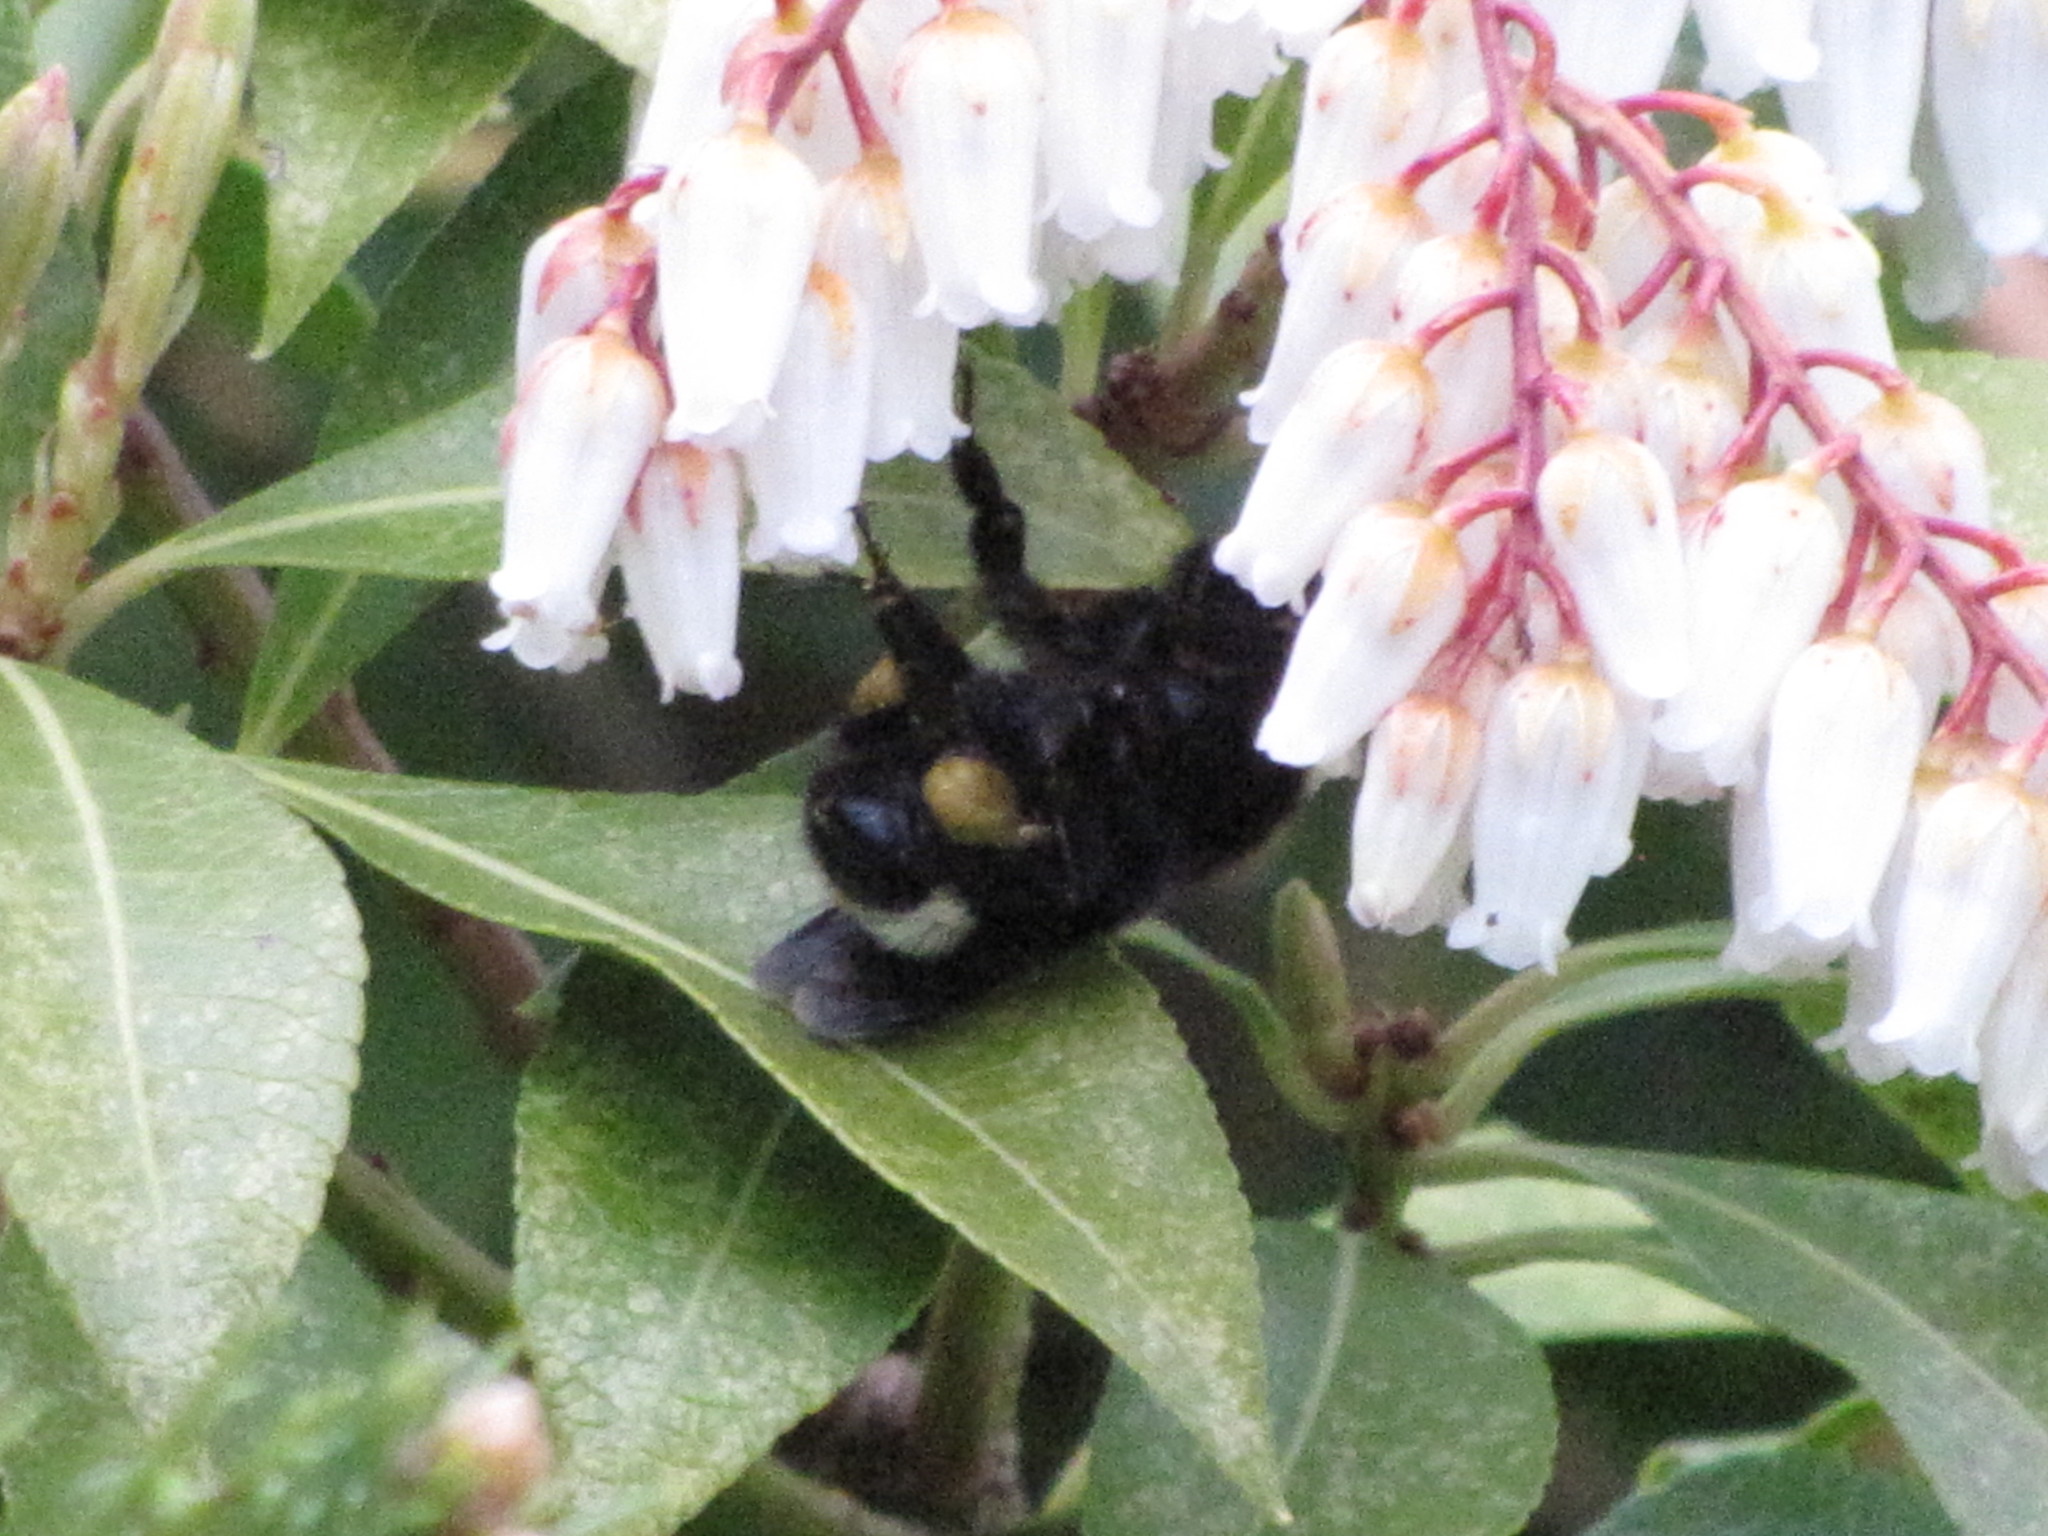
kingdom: Animalia
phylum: Arthropoda
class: Insecta
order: Hymenoptera
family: Apidae
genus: Bombus
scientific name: Bombus vosnesenskii
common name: Vosnesensky bumble bee
